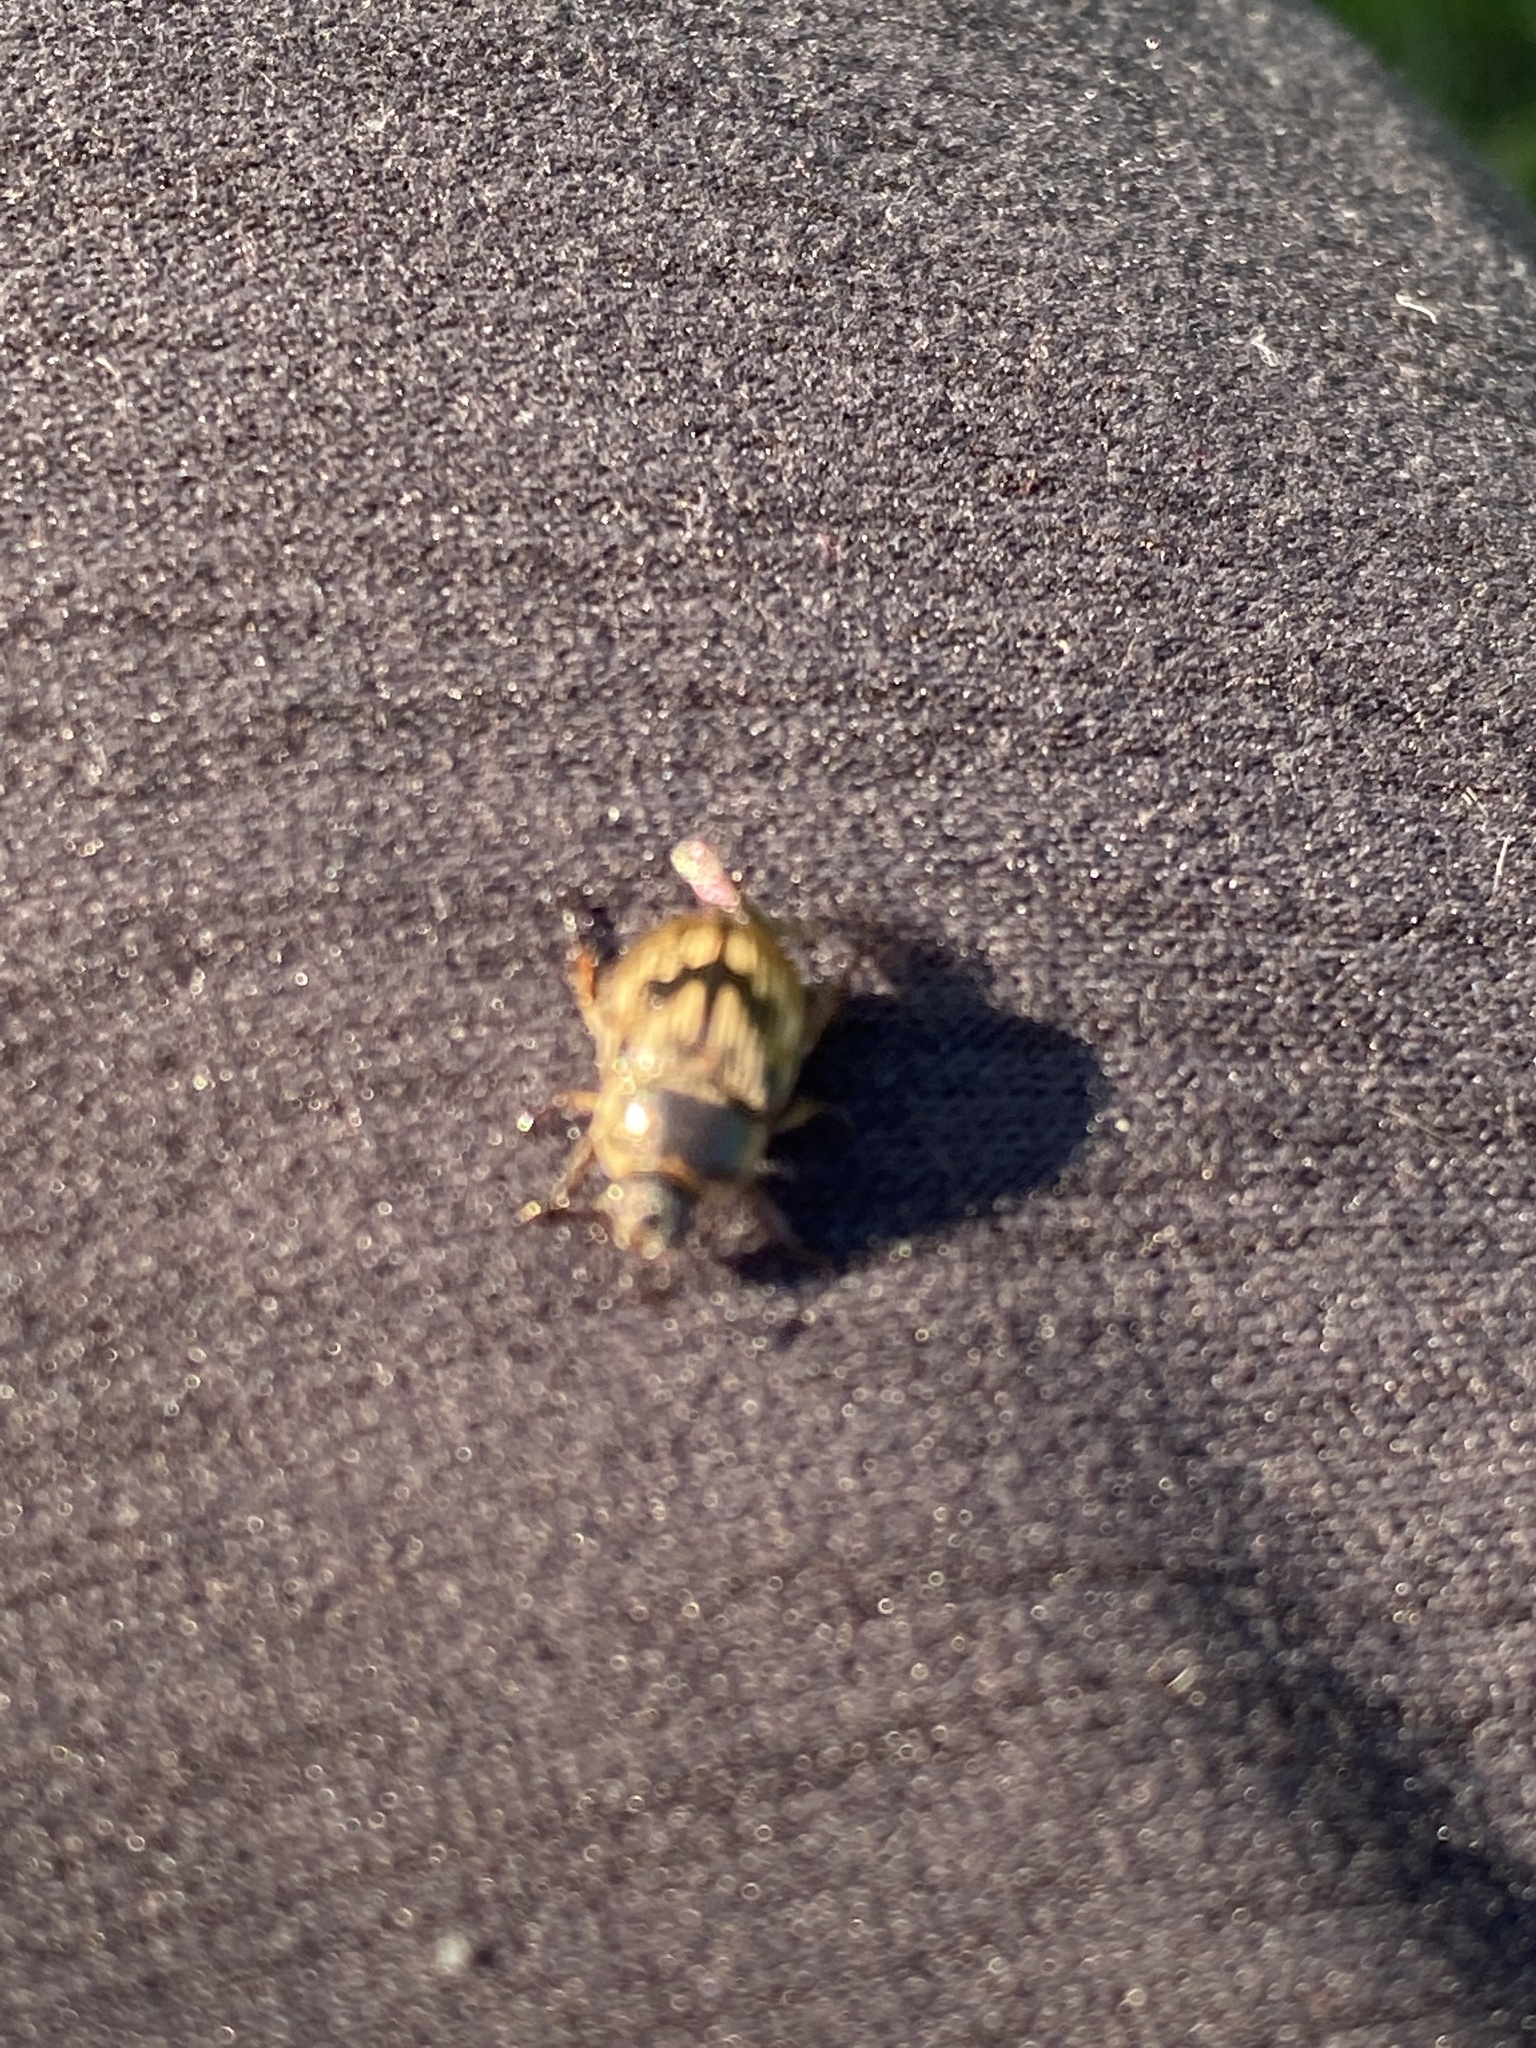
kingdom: Animalia
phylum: Arthropoda
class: Insecta
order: Coleoptera
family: Scarabaeidae
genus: Exomala
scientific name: Exomala orientalis
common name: Oriental beetle
